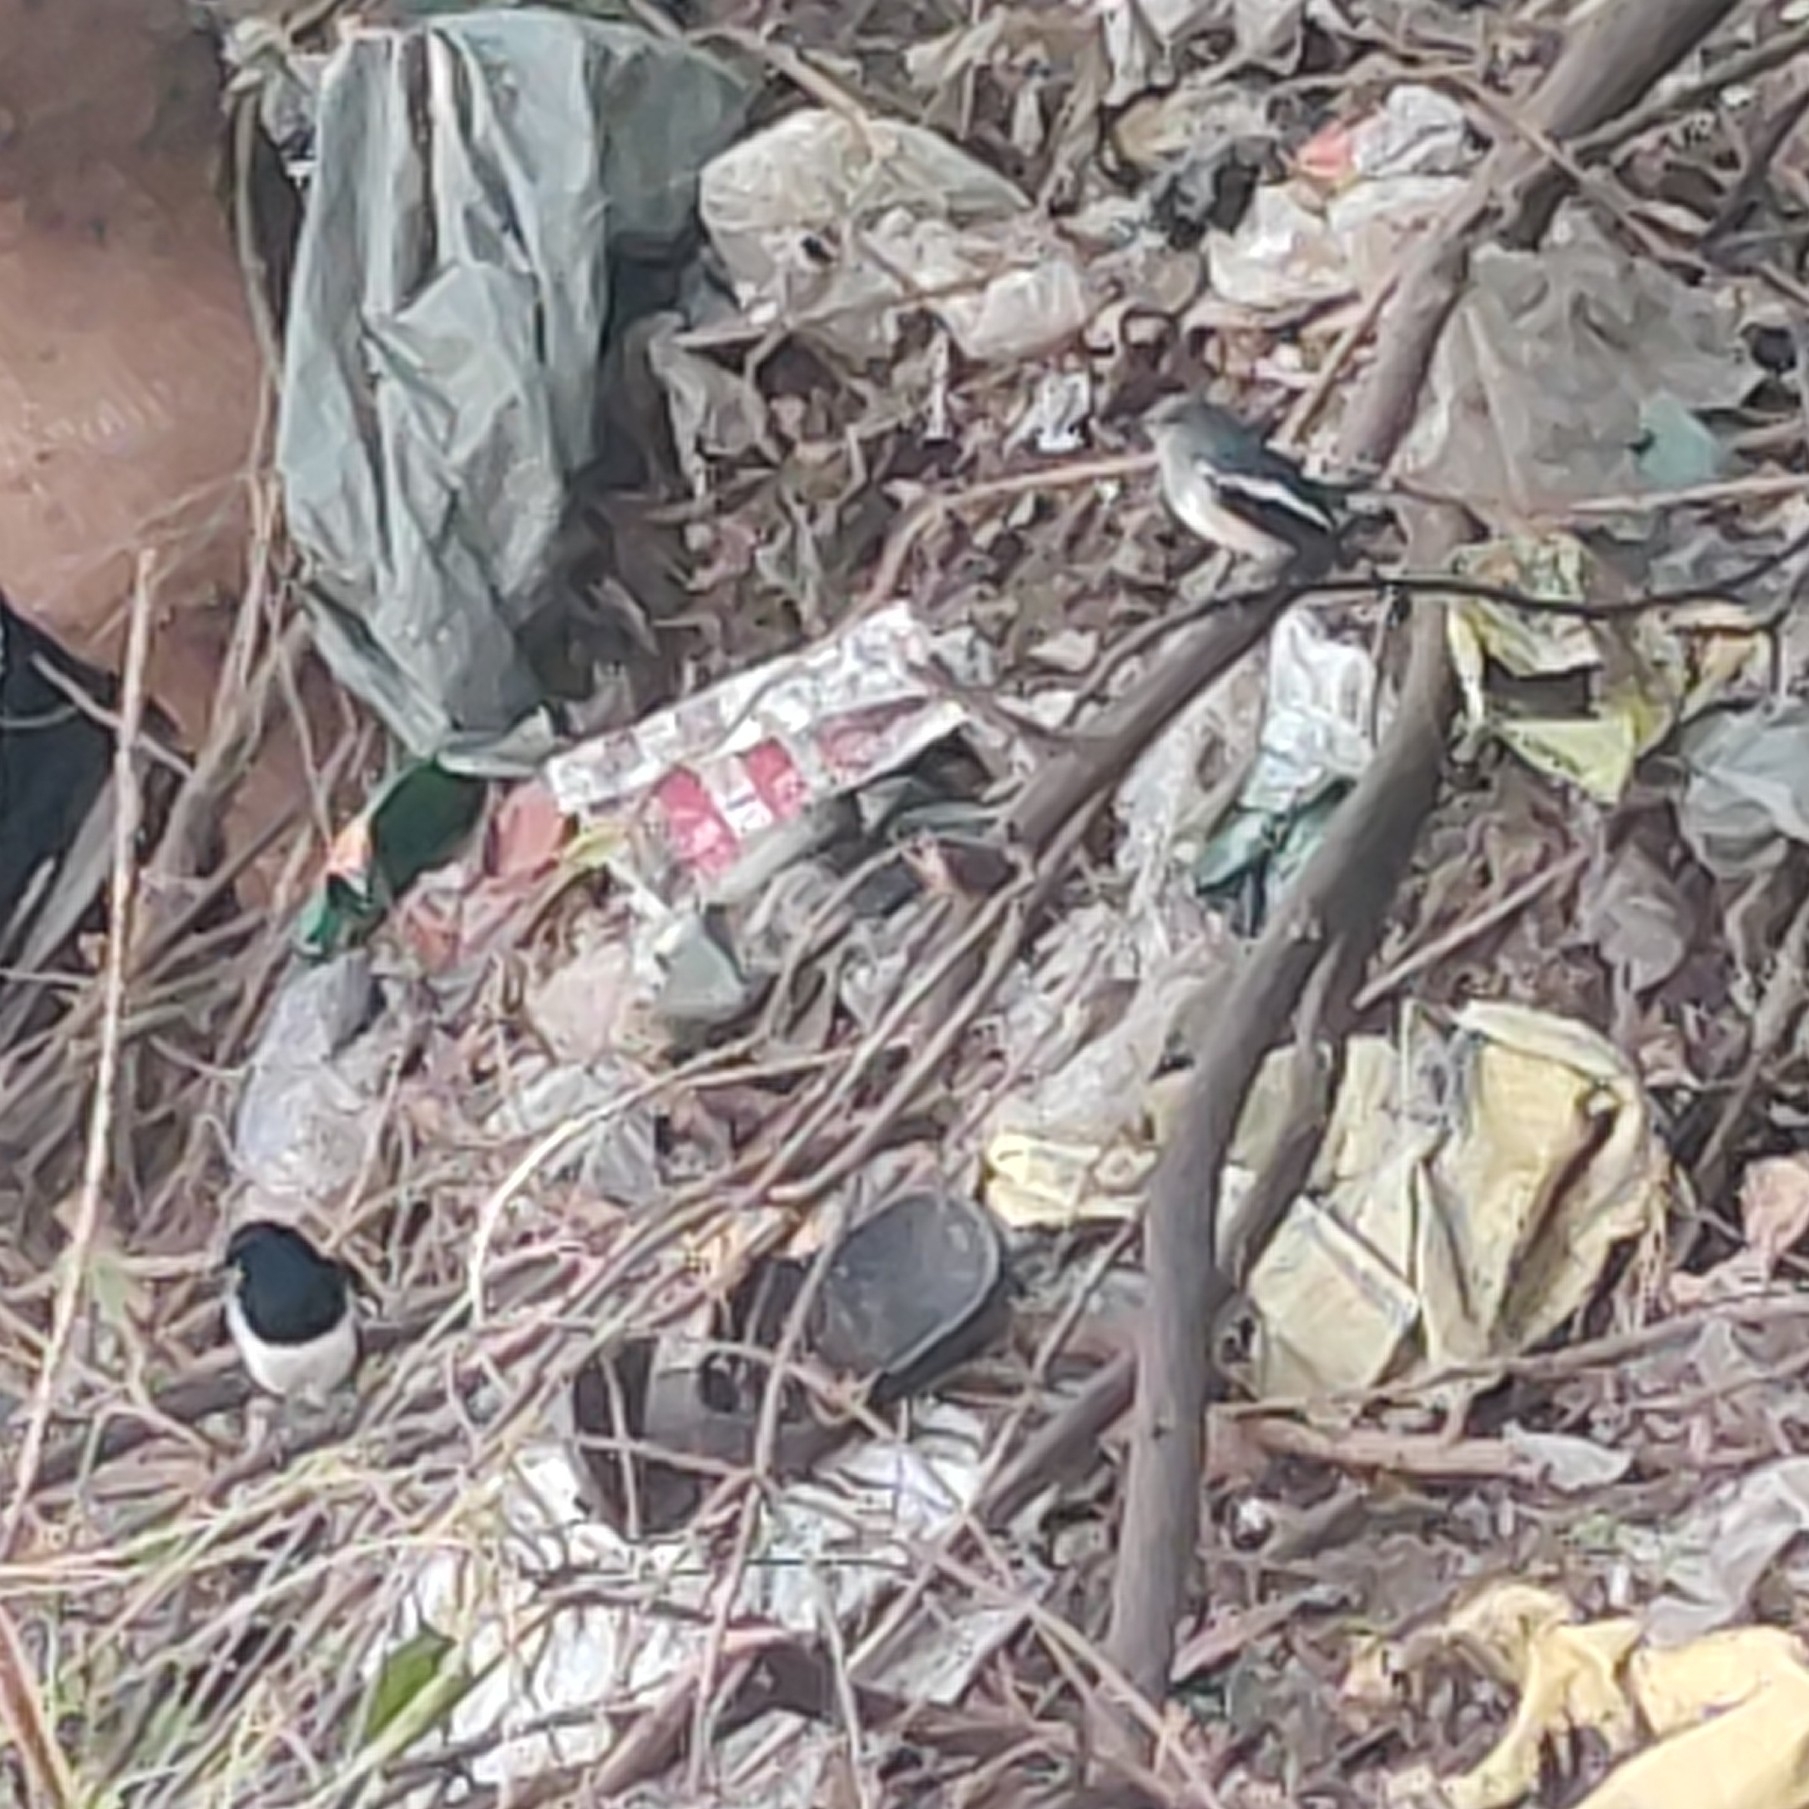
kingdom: Animalia
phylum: Chordata
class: Aves
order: Passeriformes
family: Muscicapidae
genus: Copsychus
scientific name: Copsychus saularis
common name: Oriental magpie-robin
